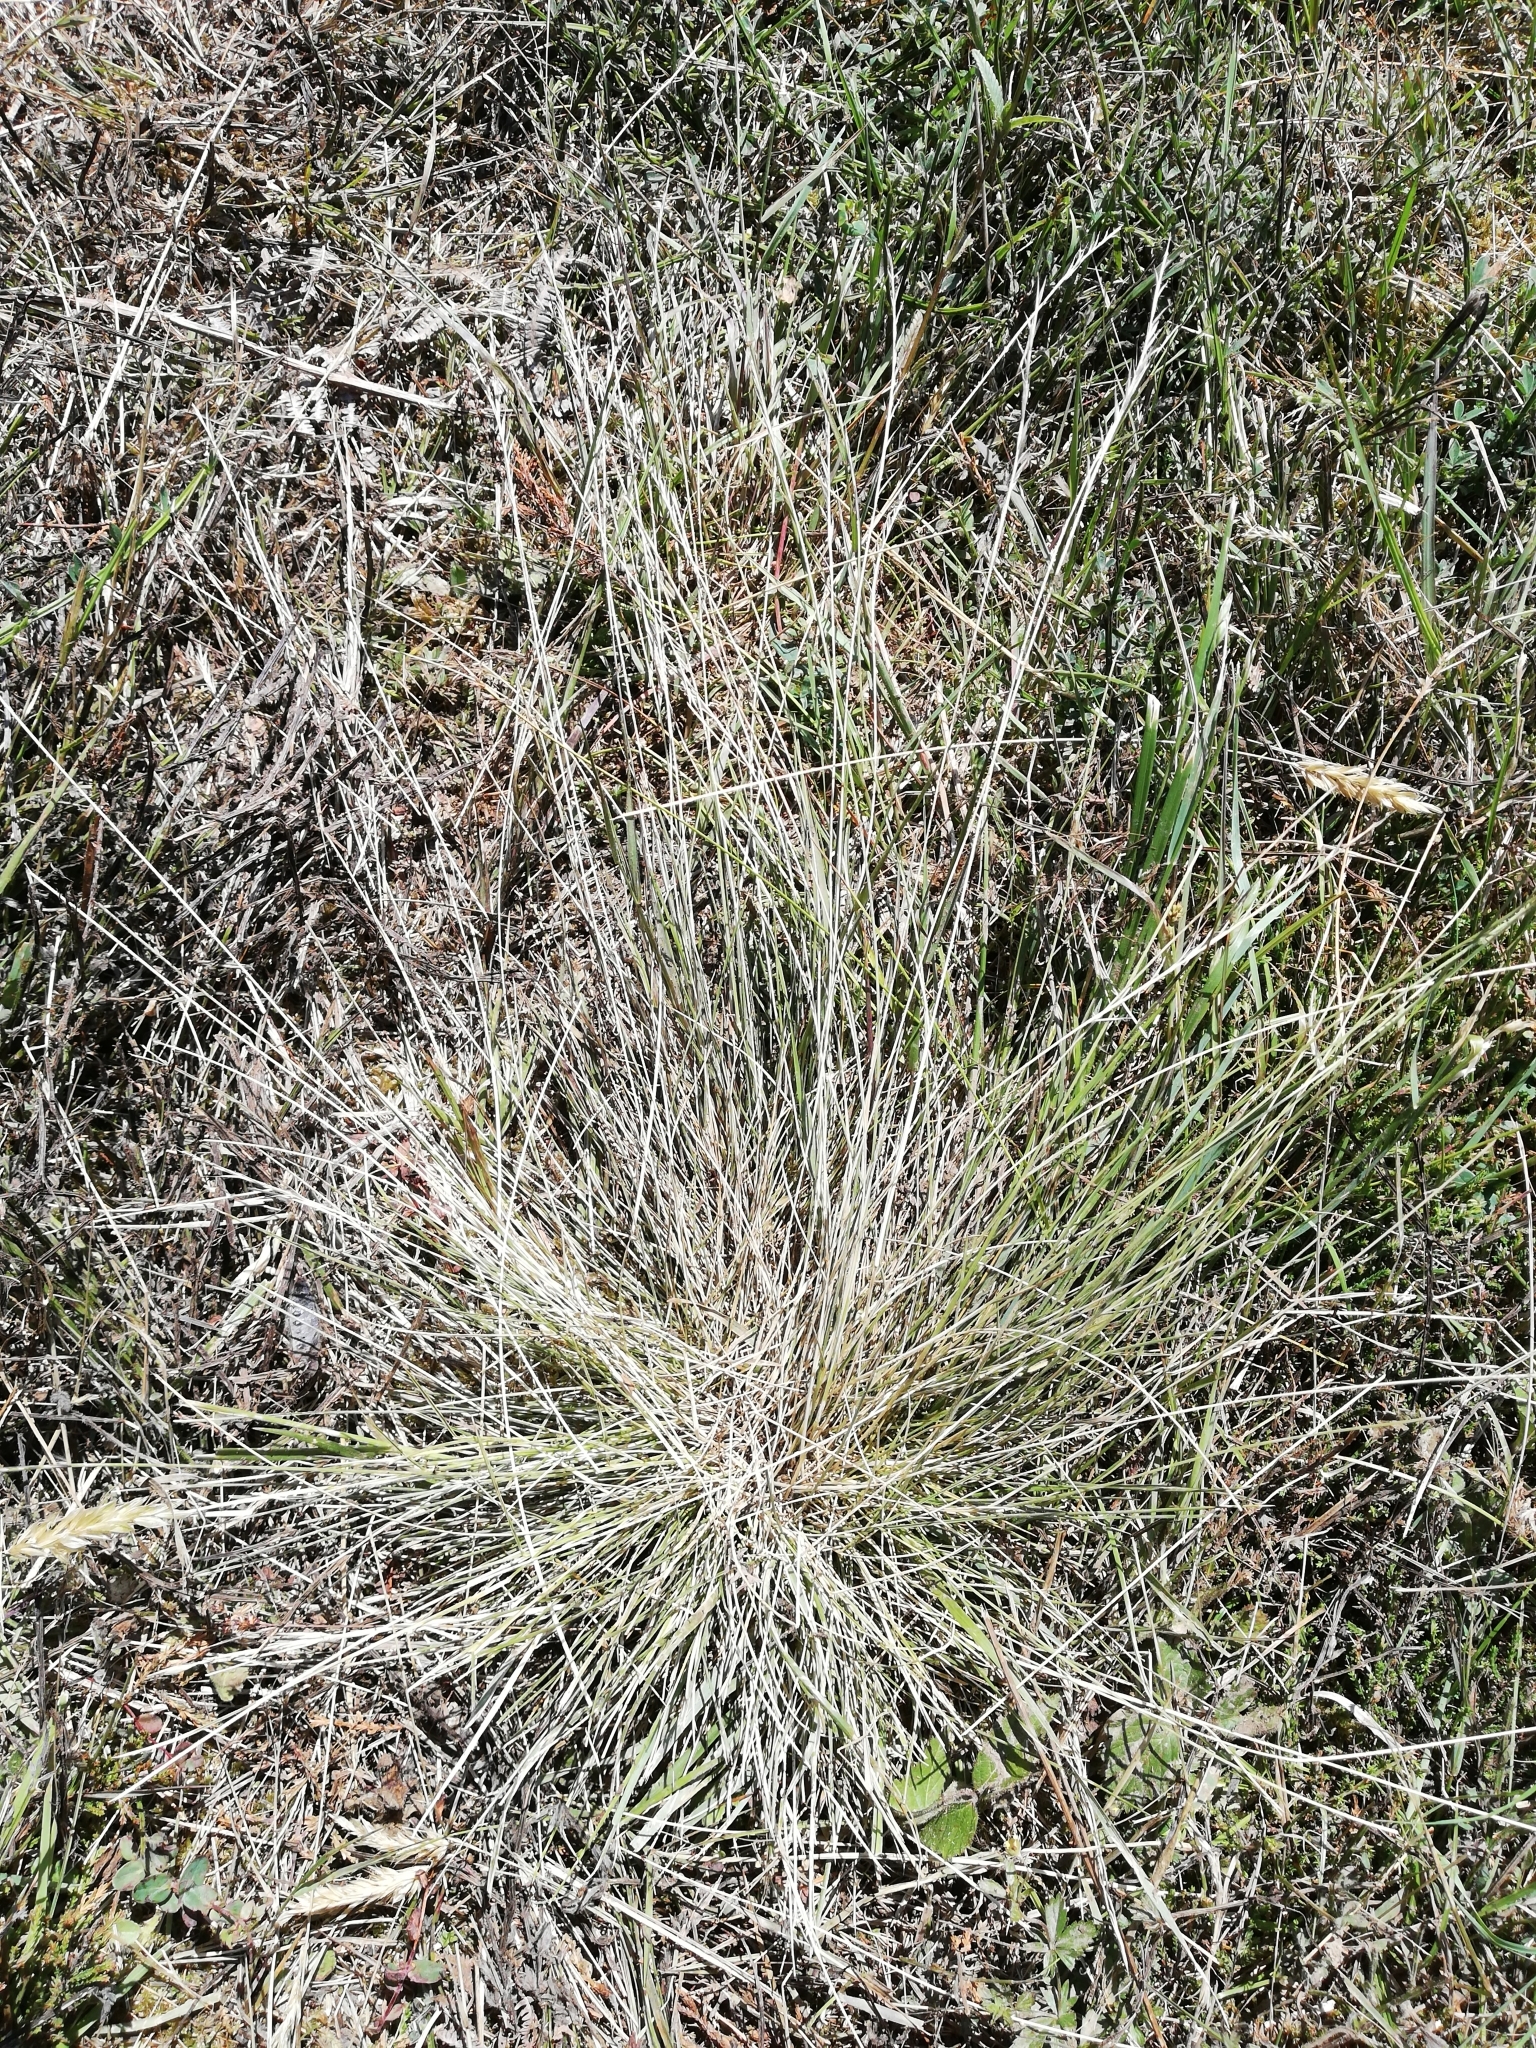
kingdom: Plantae
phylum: Tracheophyta
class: Liliopsida
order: Poales
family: Poaceae
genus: Nardus
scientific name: Nardus stricta
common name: Mat-grass
